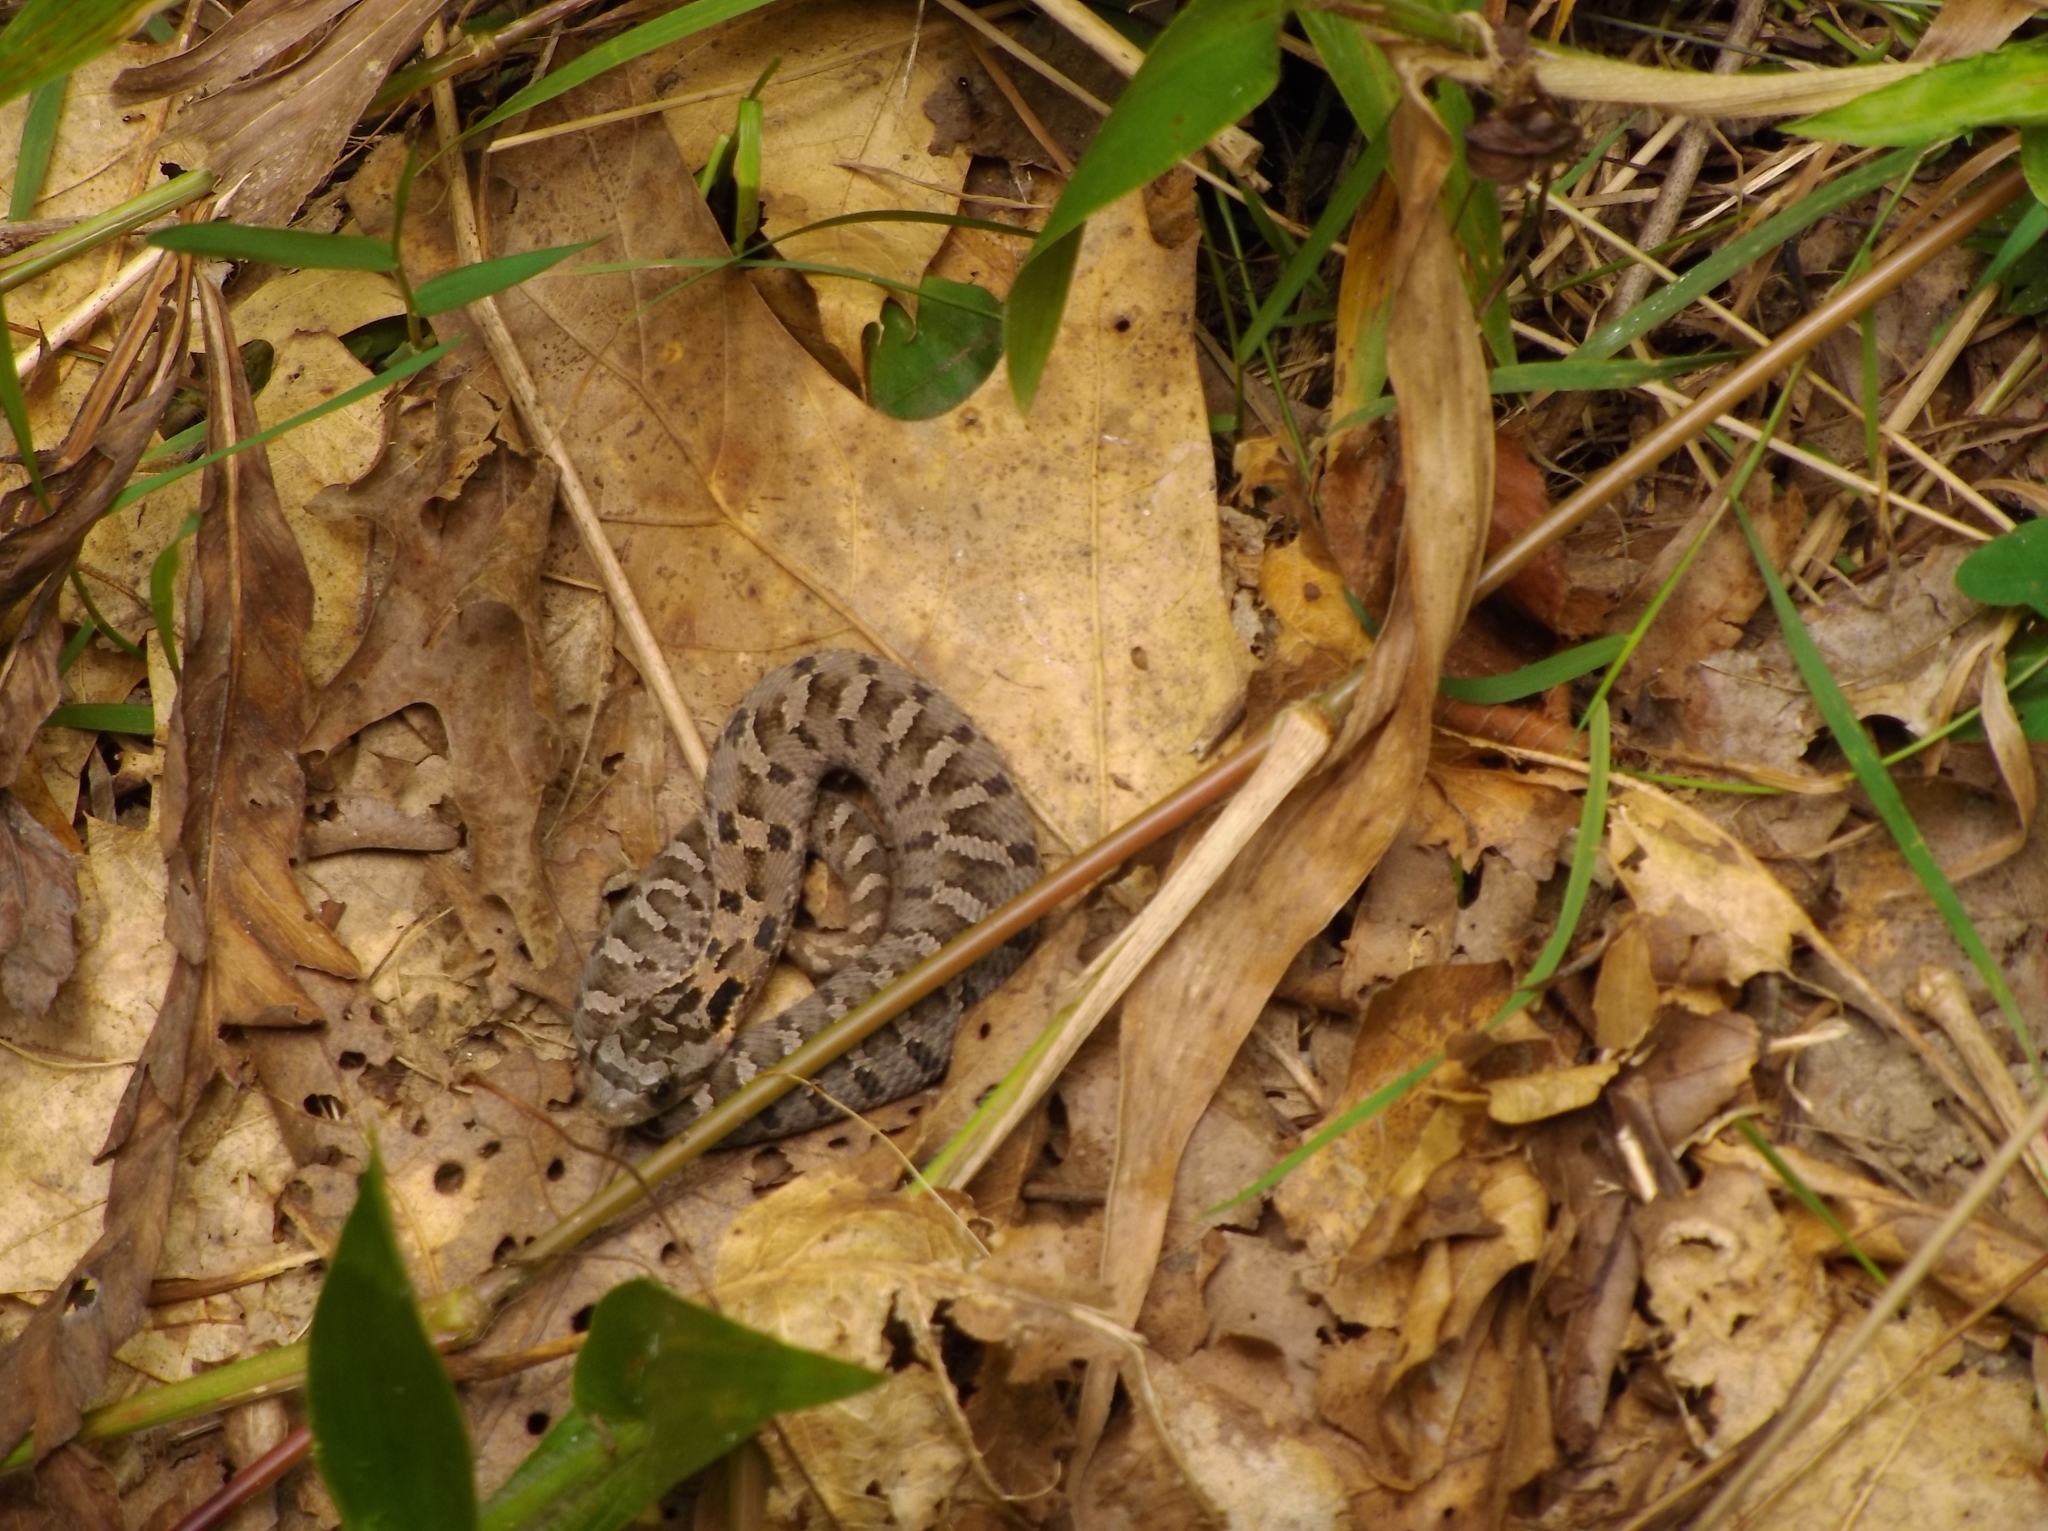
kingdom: Animalia
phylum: Chordata
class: Squamata
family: Colubridae
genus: Heterodon
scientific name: Heterodon platirhinos
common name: Eastern hognose snake
